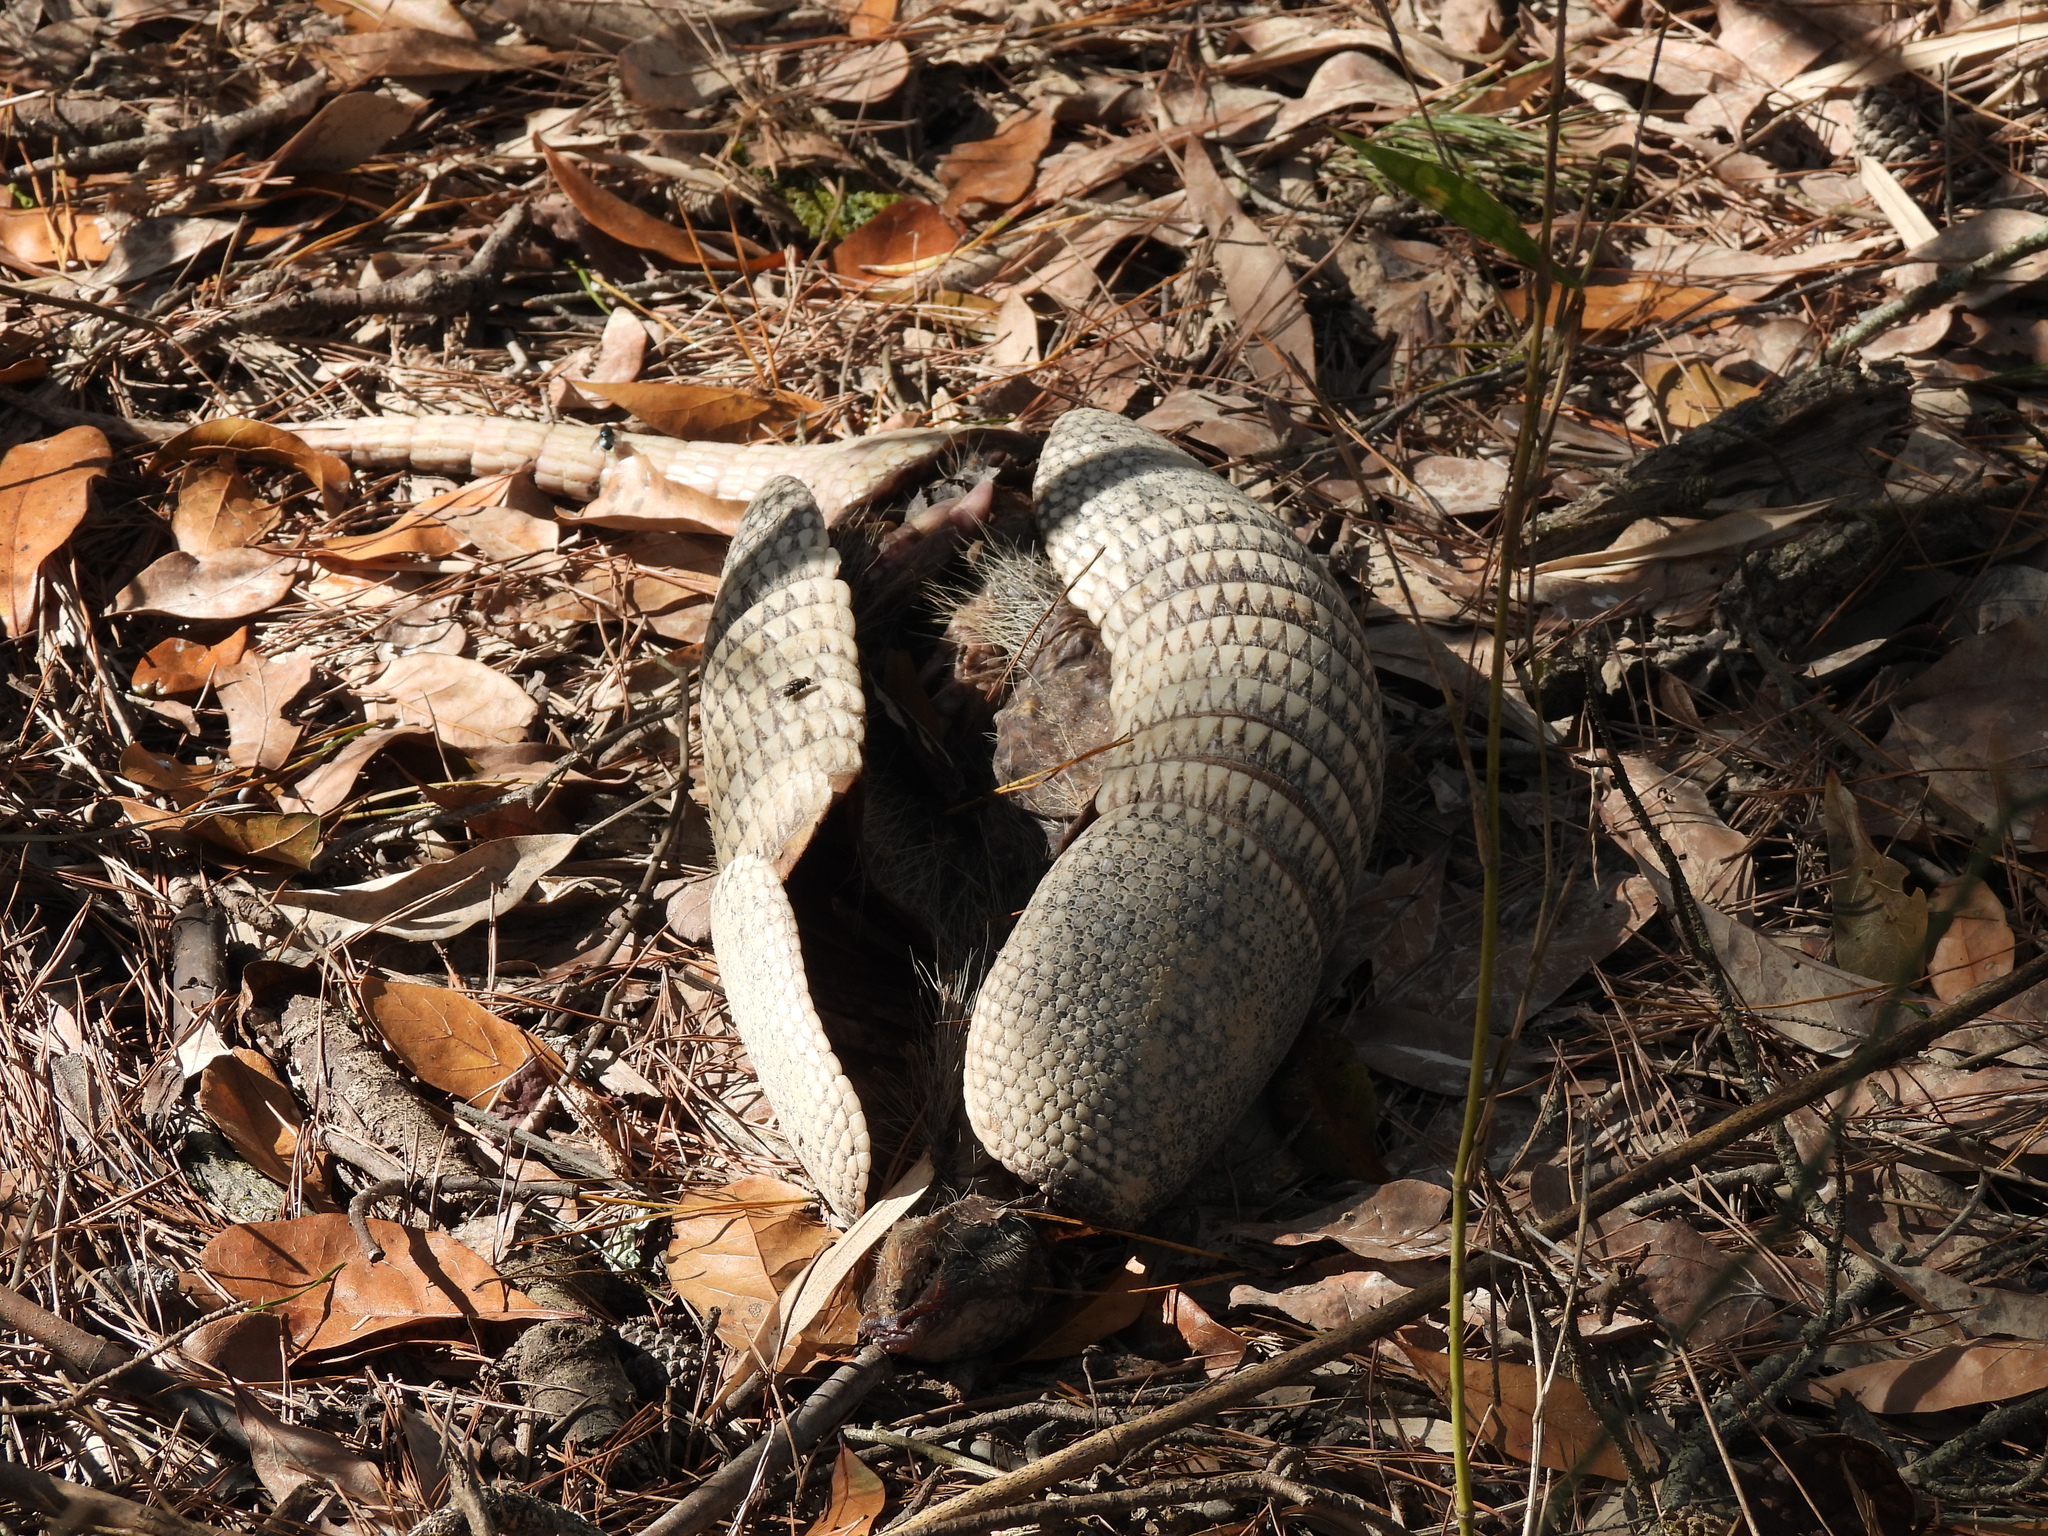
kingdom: Animalia
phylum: Chordata
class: Mammalia
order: Cingulata
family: Dasypodidae
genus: Dasypus
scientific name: Dasypus novemcinctus
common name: Nine-banded armadillo
